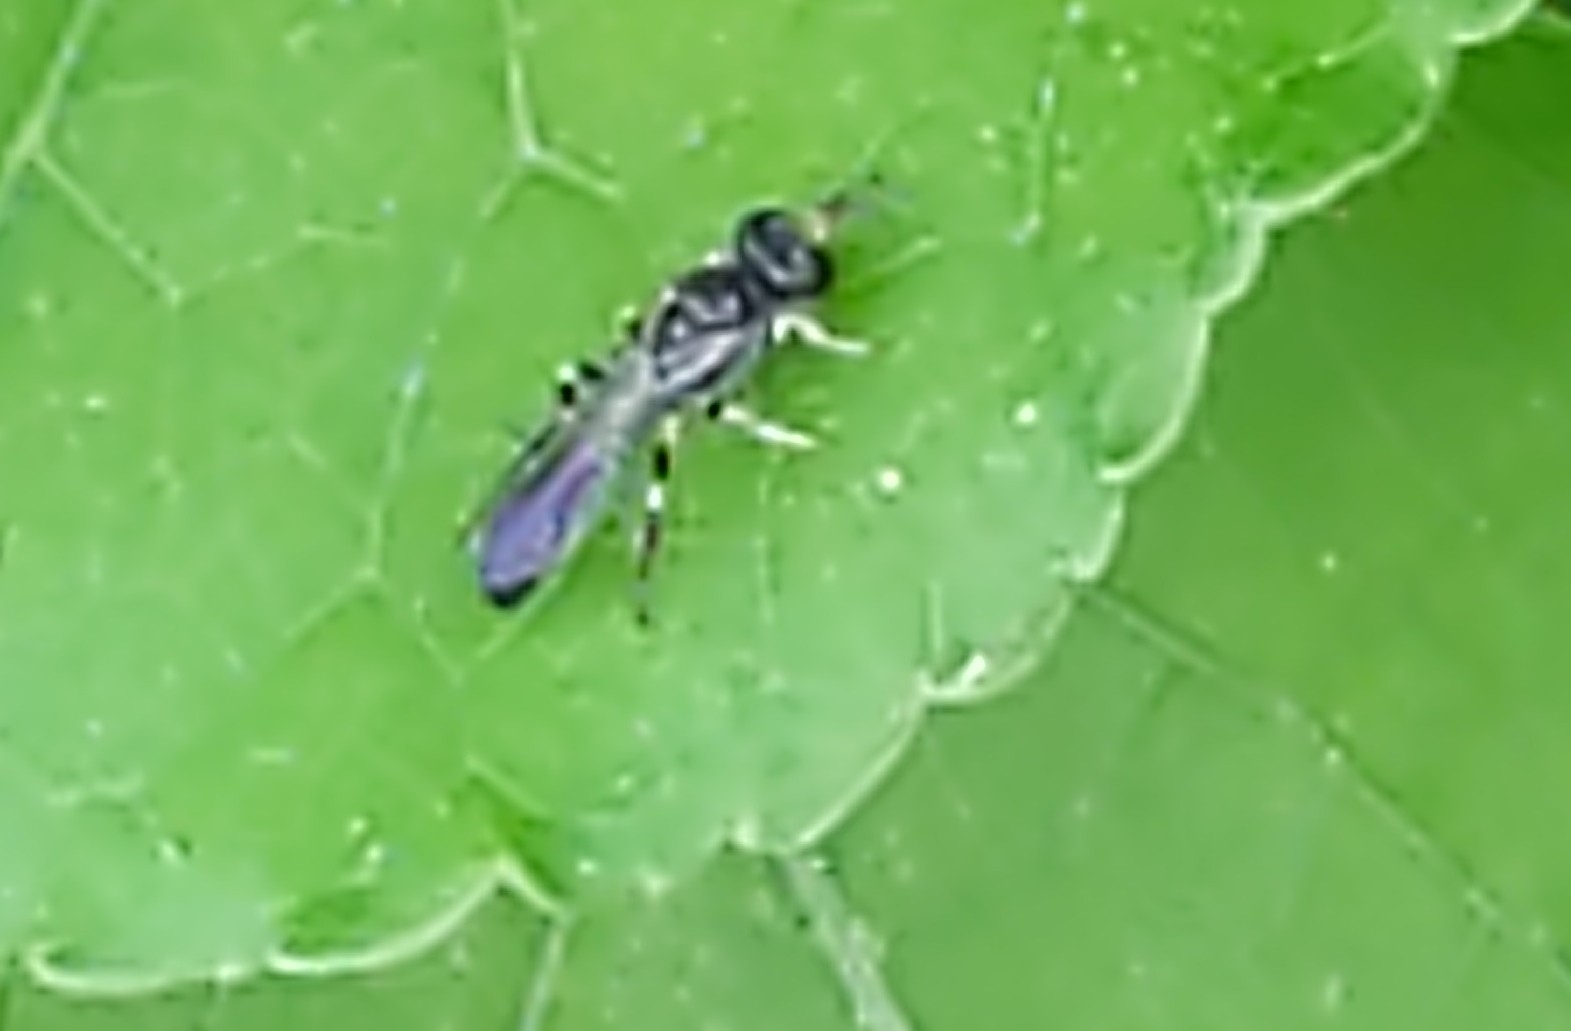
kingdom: Animalia
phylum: Arthropoda
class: Insecta
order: Hymenoptera
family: Crabronidae
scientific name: Crabronidae
